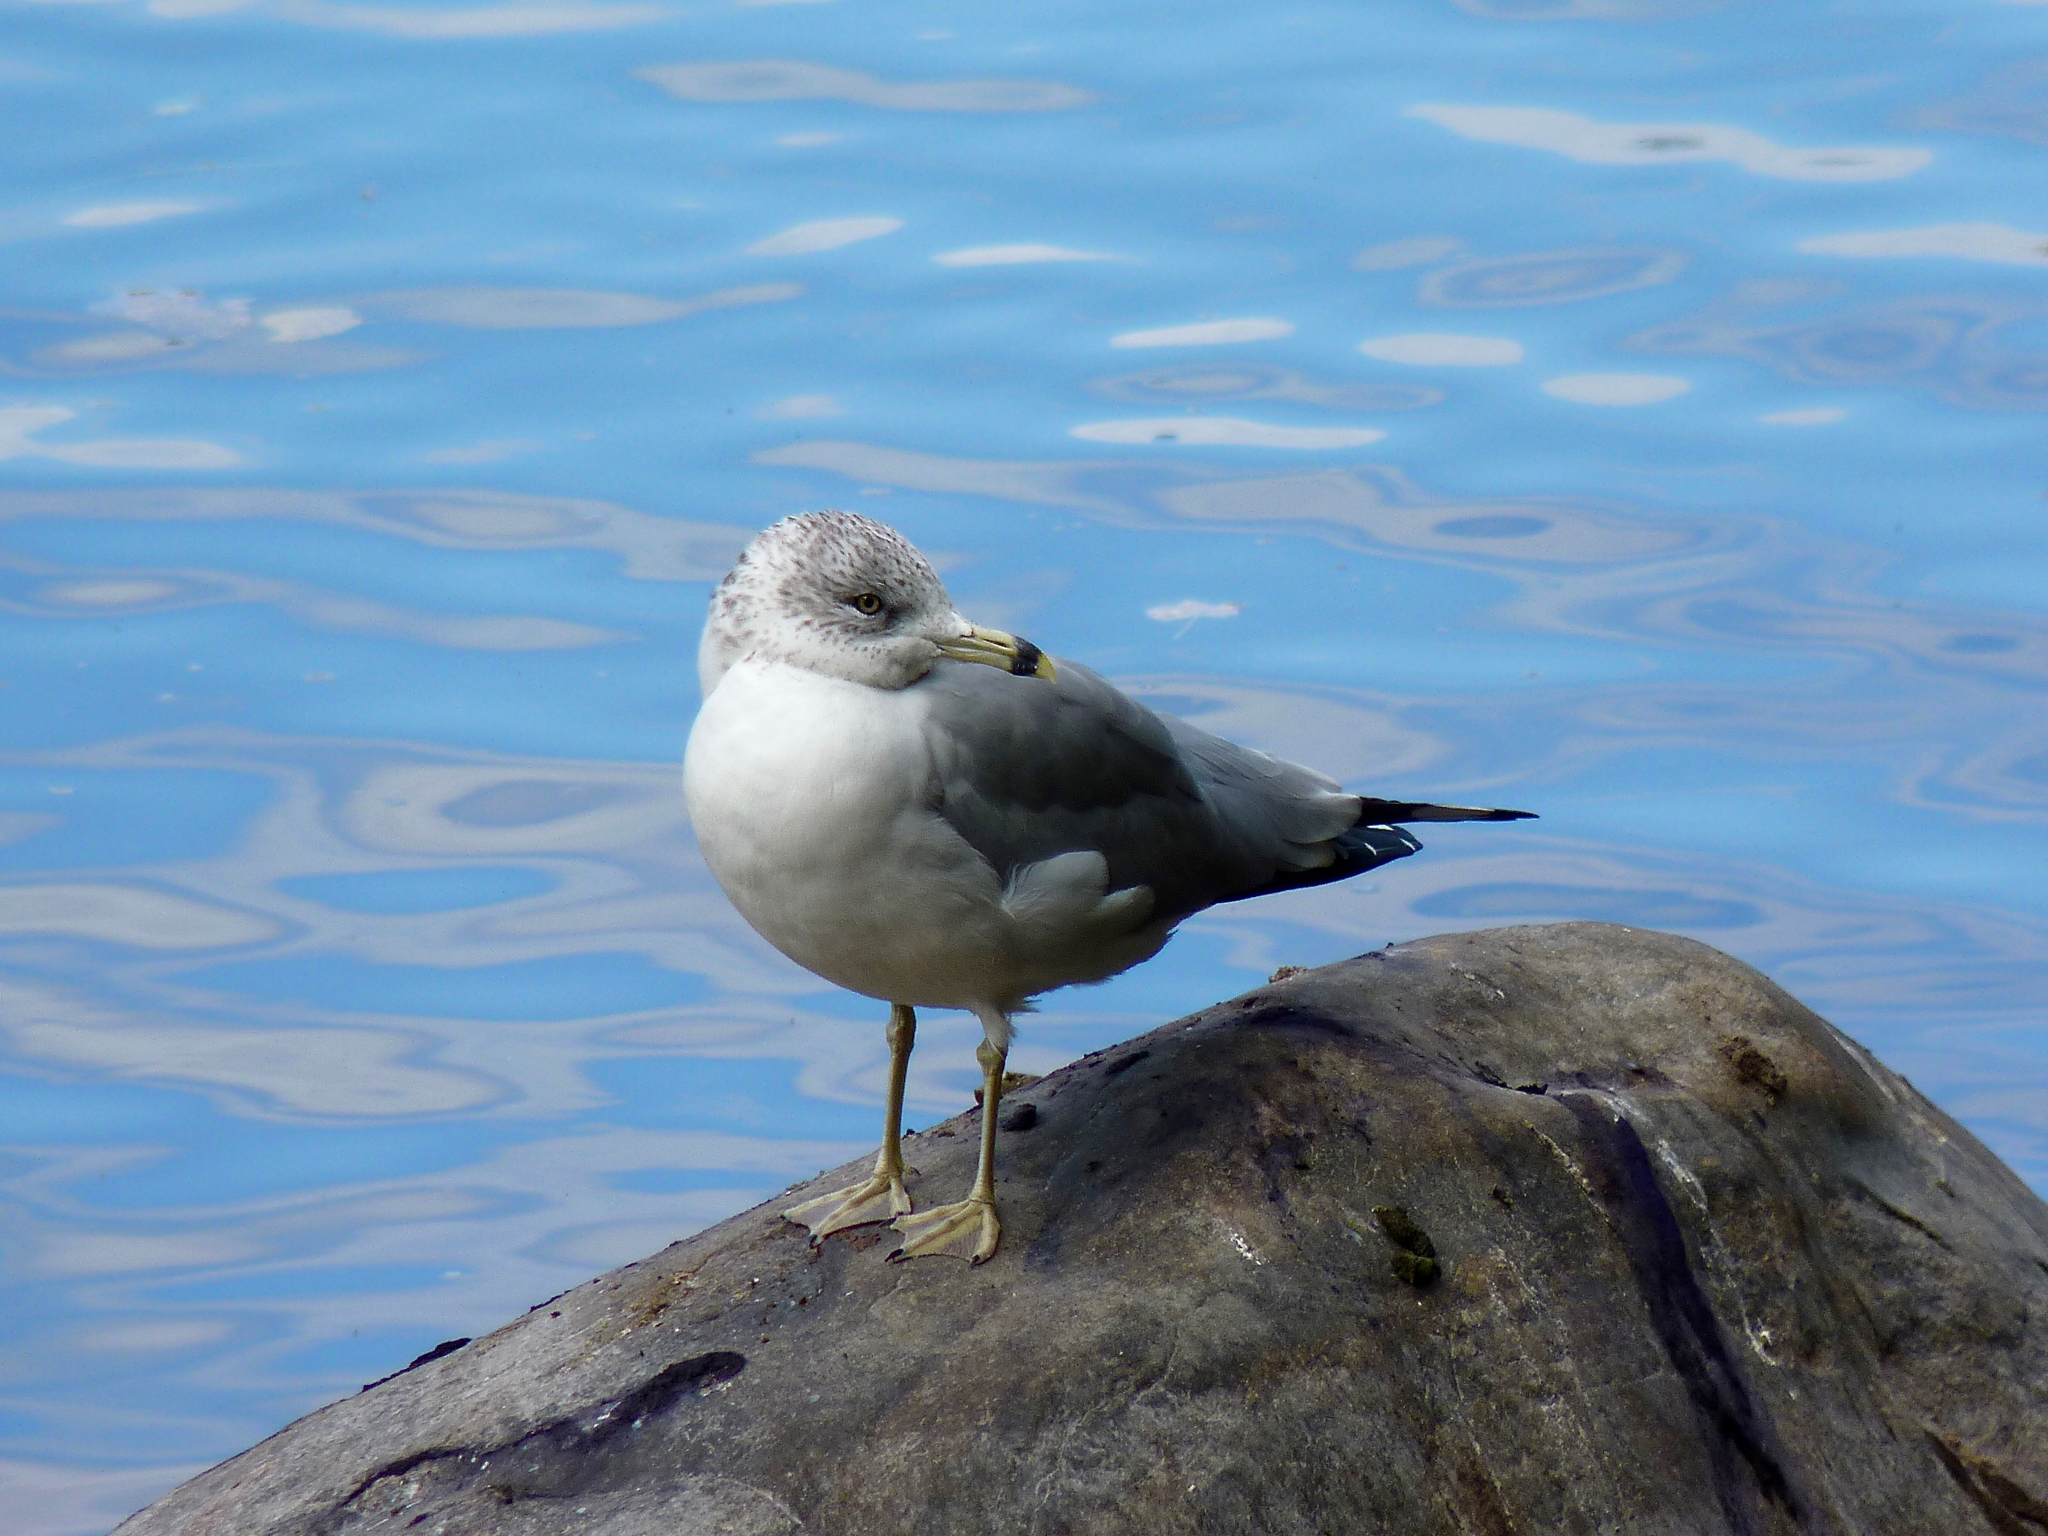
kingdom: Animalia
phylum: Chordata
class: Aves
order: Charadriiformes
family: Laridae
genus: Larus
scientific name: Larus delawarensis
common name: Ring-billed gull
